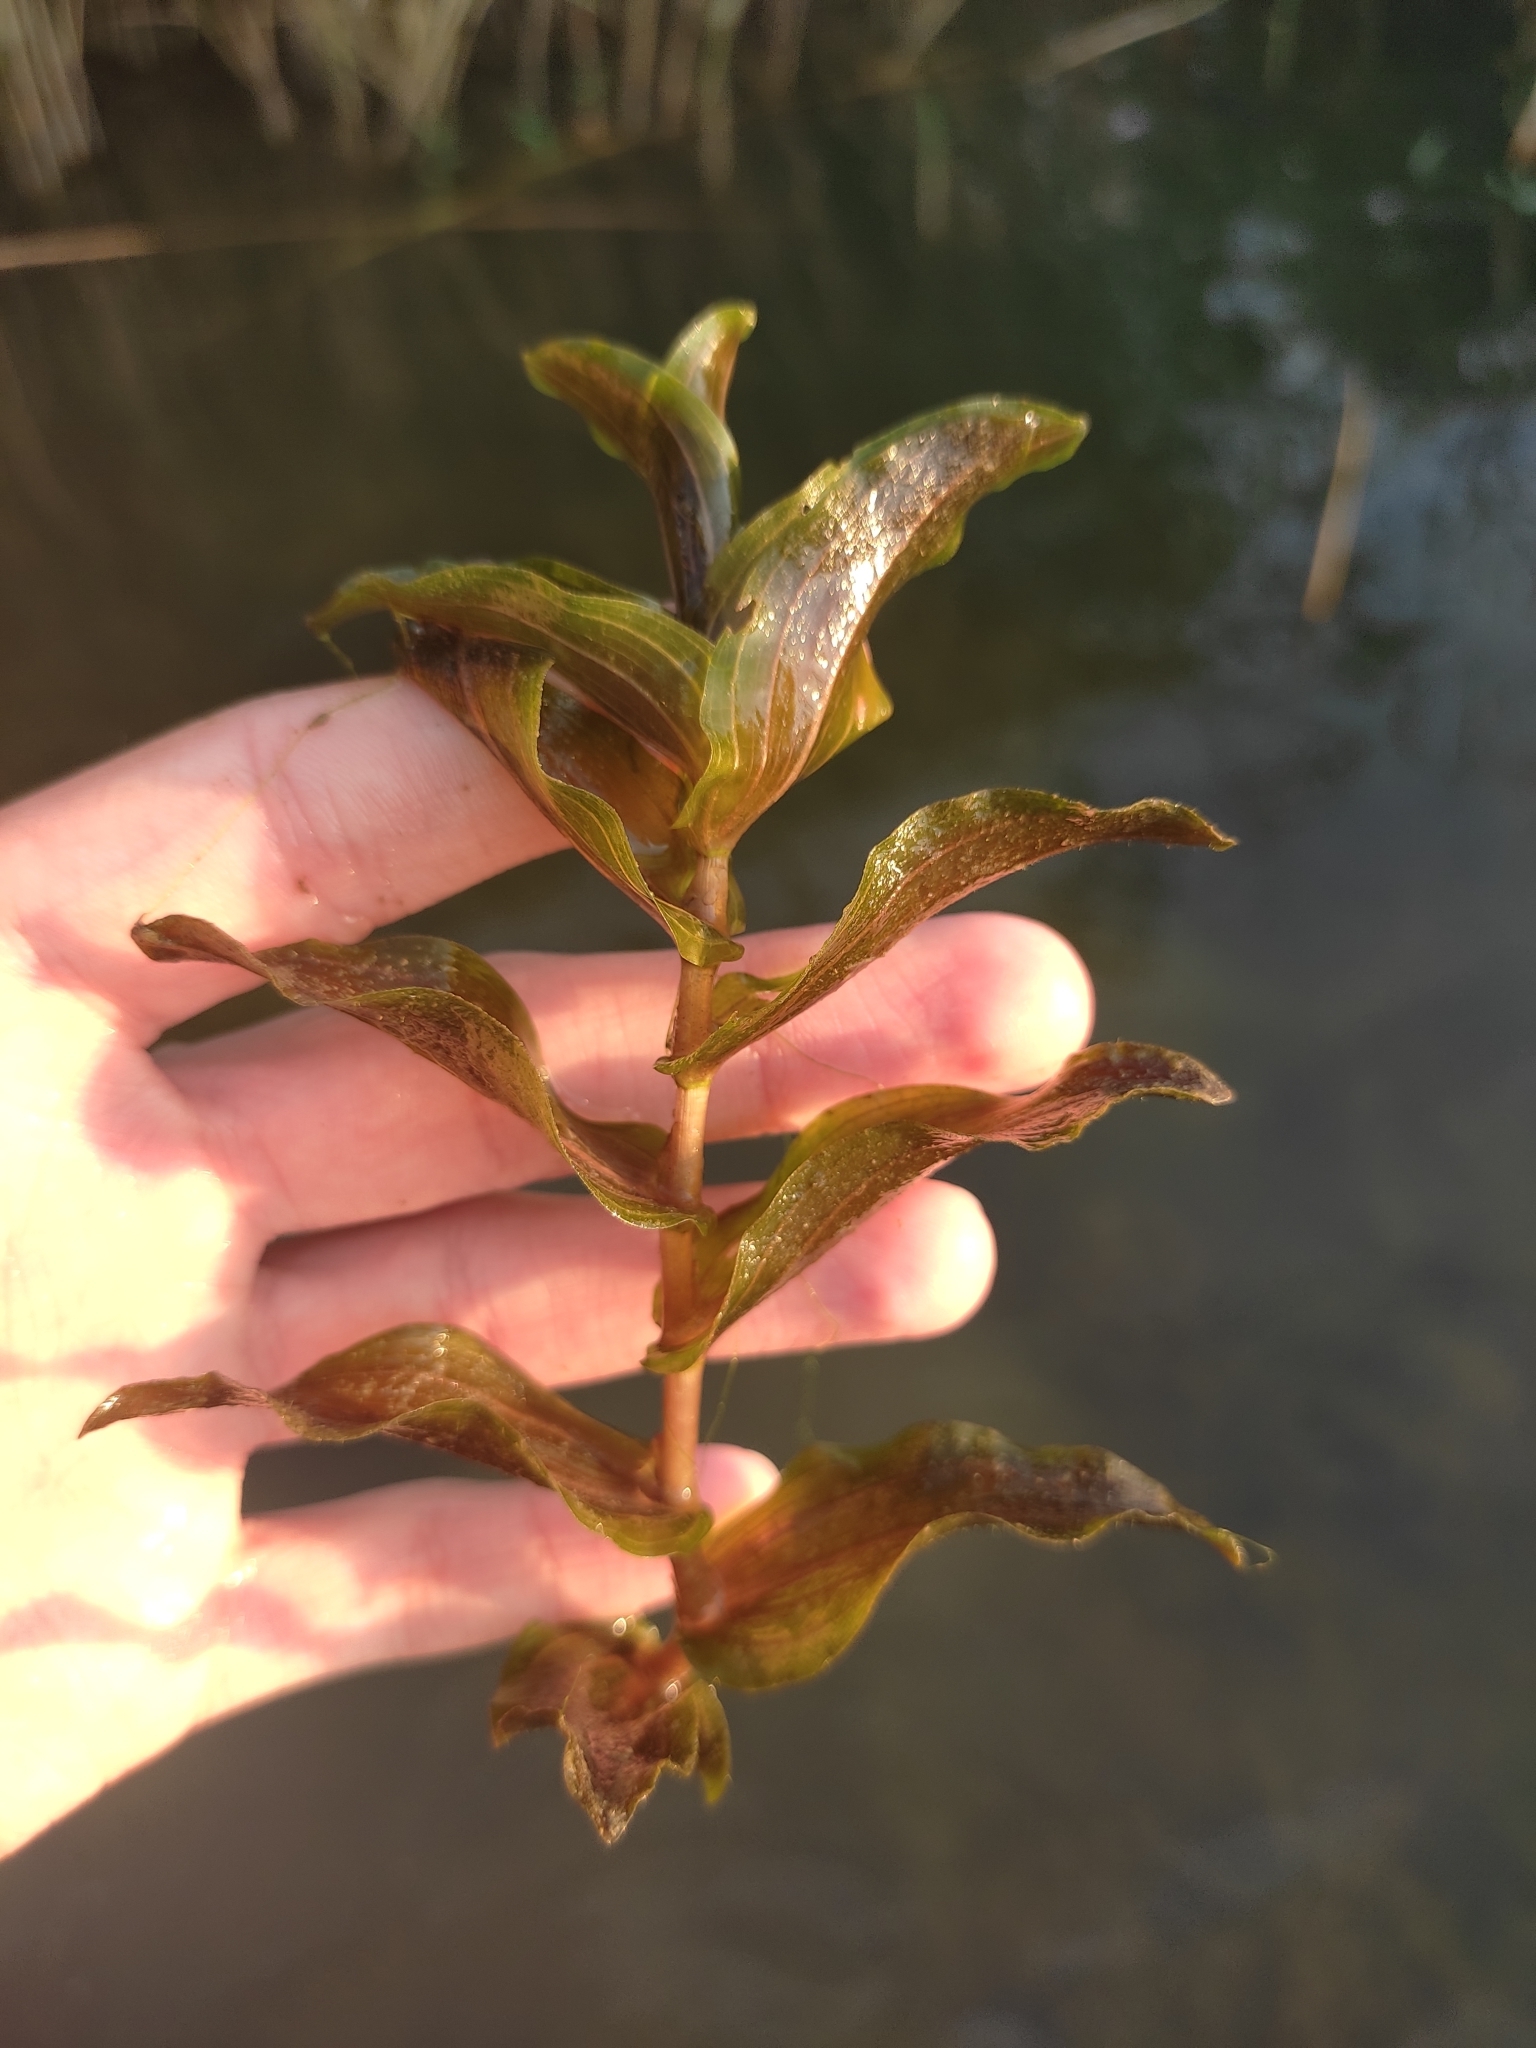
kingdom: Plantae
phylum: Tracheophyta
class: Liliopsida
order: Alismatales
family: Potamogetonaceae
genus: Potamogeton
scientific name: Potamogeton perfoliatus
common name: Perfoliate pondweed
